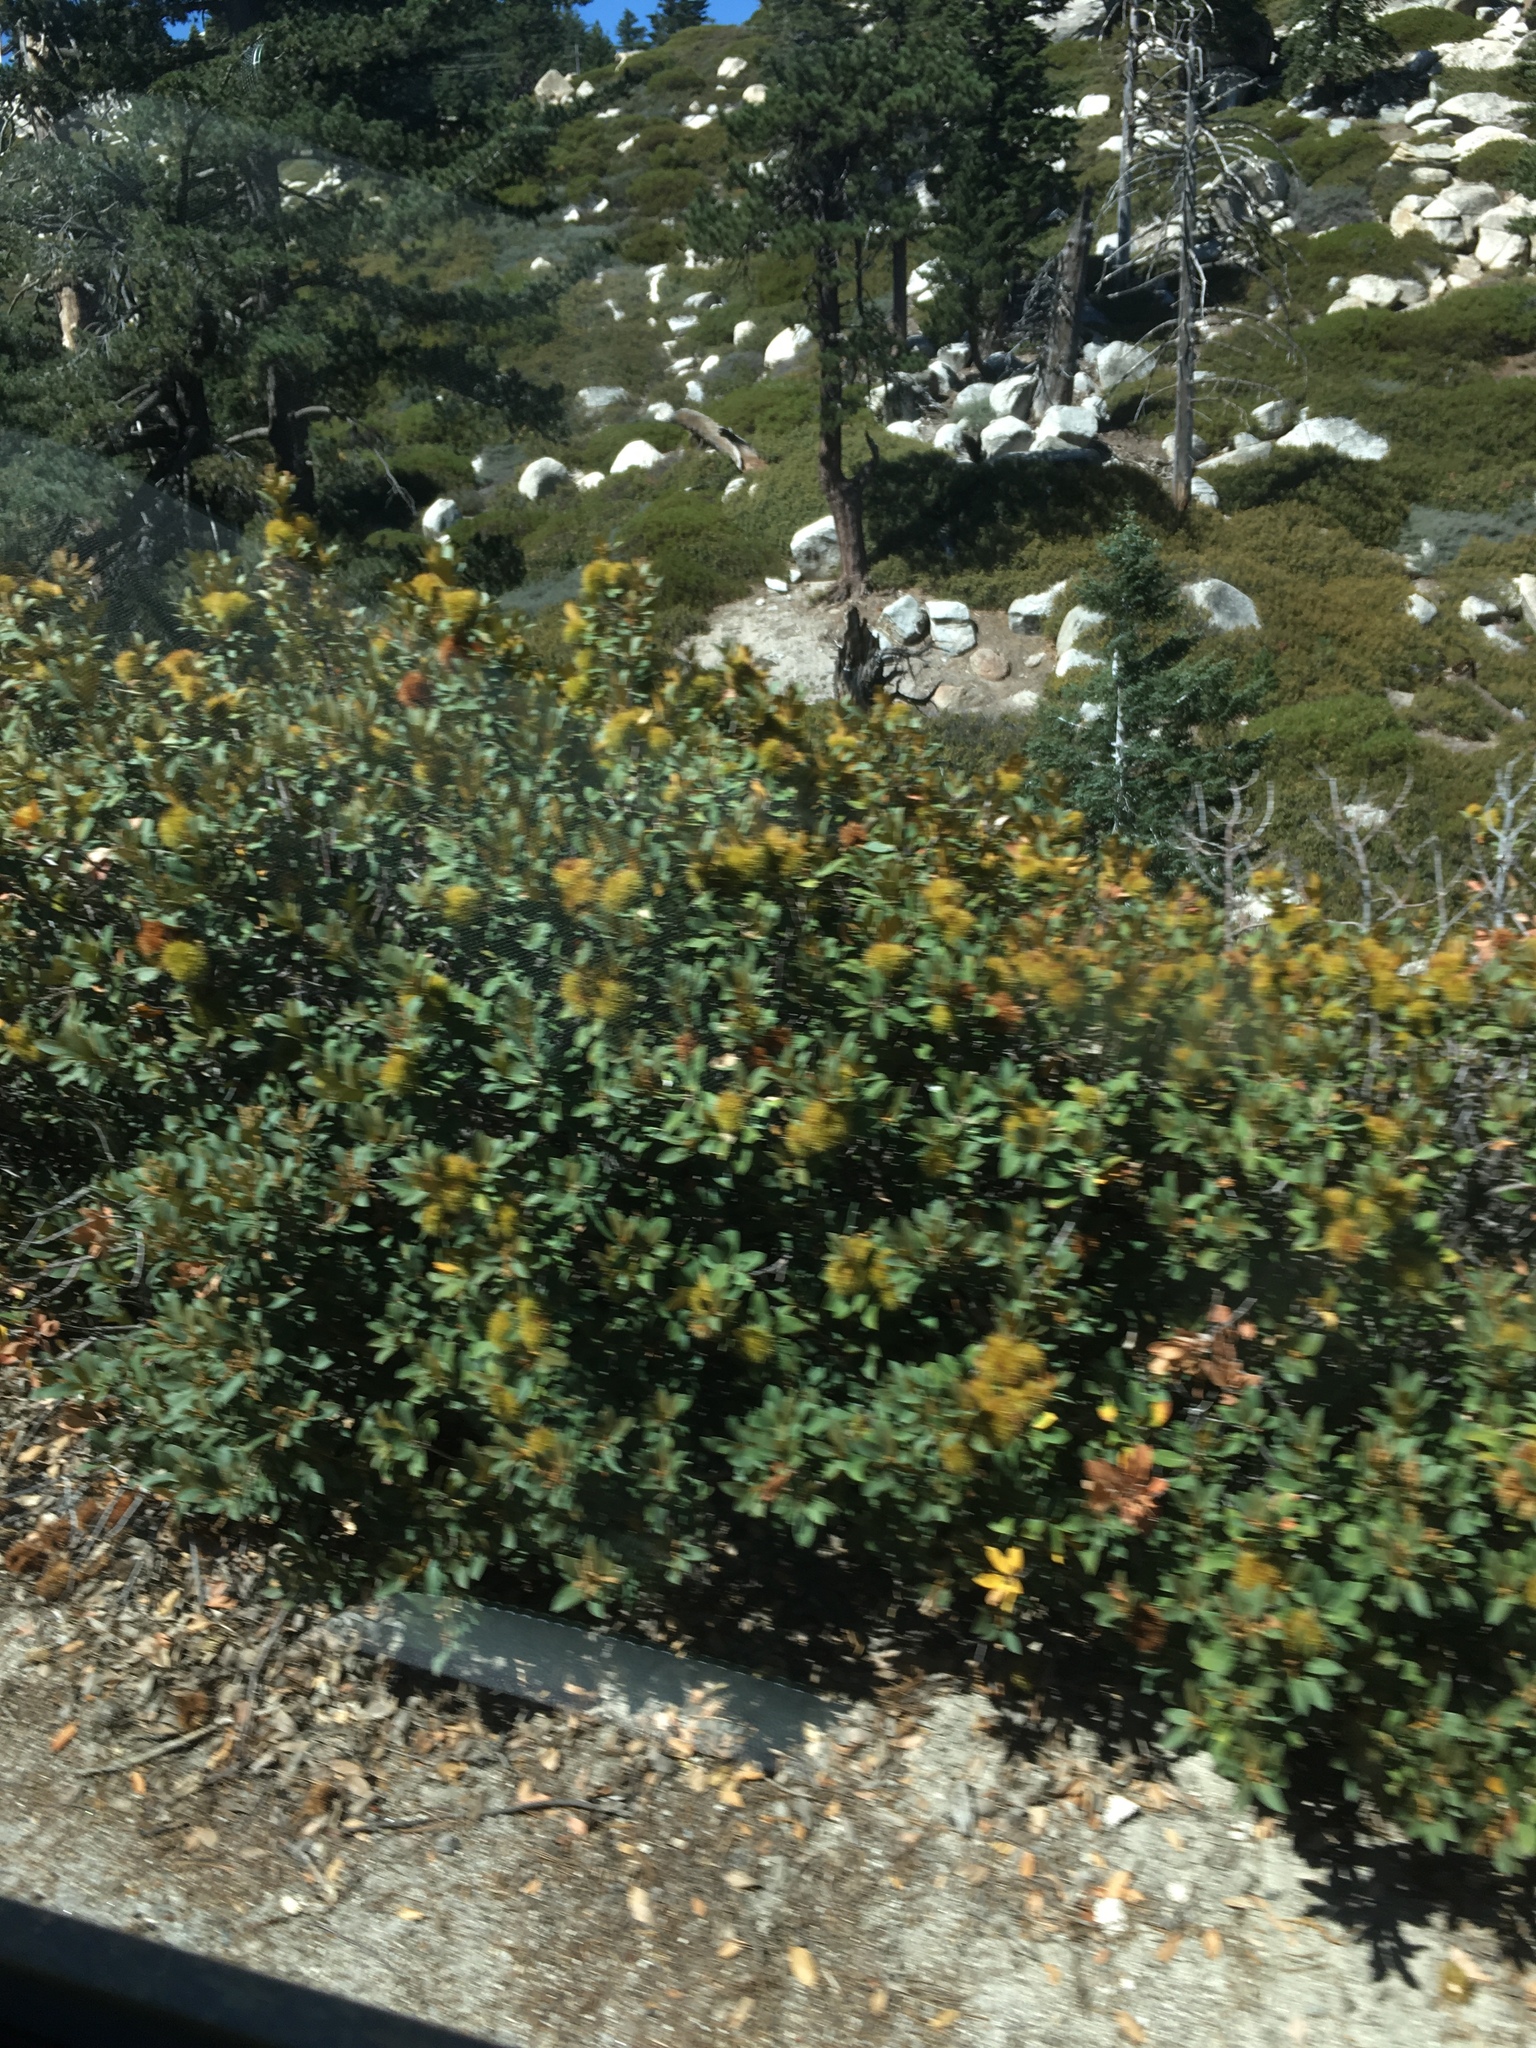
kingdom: Plantae
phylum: Tracheophyta
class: Magnoliopsida
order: Fagales
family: Fagaceae
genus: Chrysolepis
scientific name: Chrysolepis sempervirens
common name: Bush chinquapin
